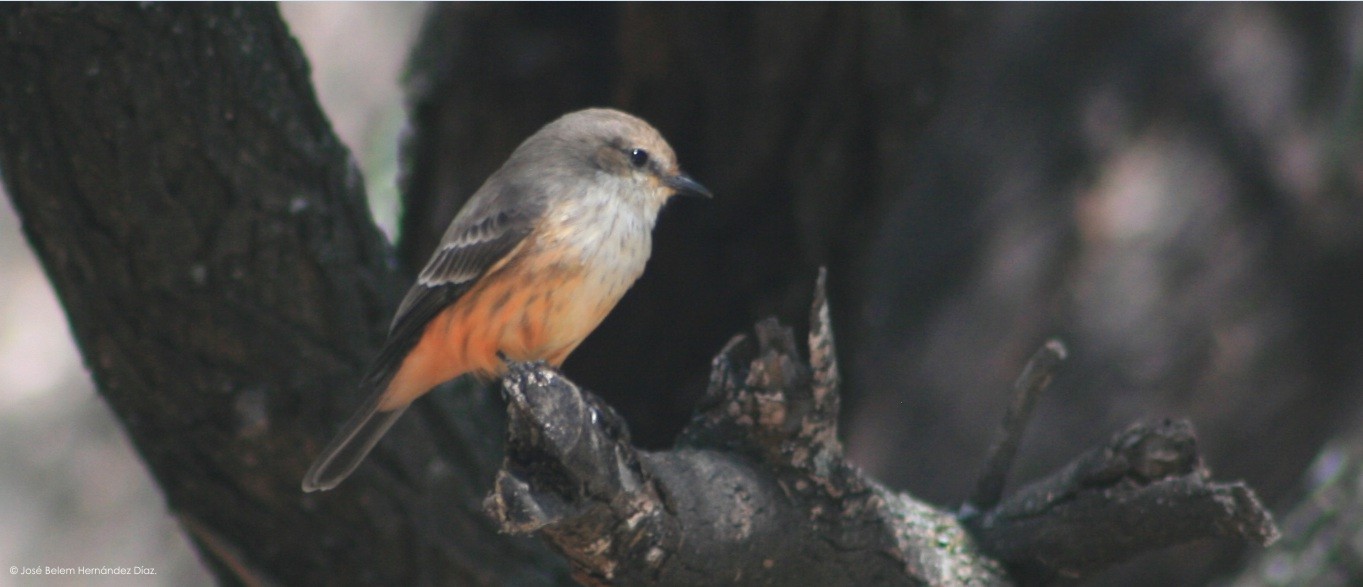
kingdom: Animalia
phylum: Chordata
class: Aves
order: Passeriformes
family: Tyrannidae
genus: Pyrocephalus
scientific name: Pyrocephalus rubinus
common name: Vermilion flycatcher
